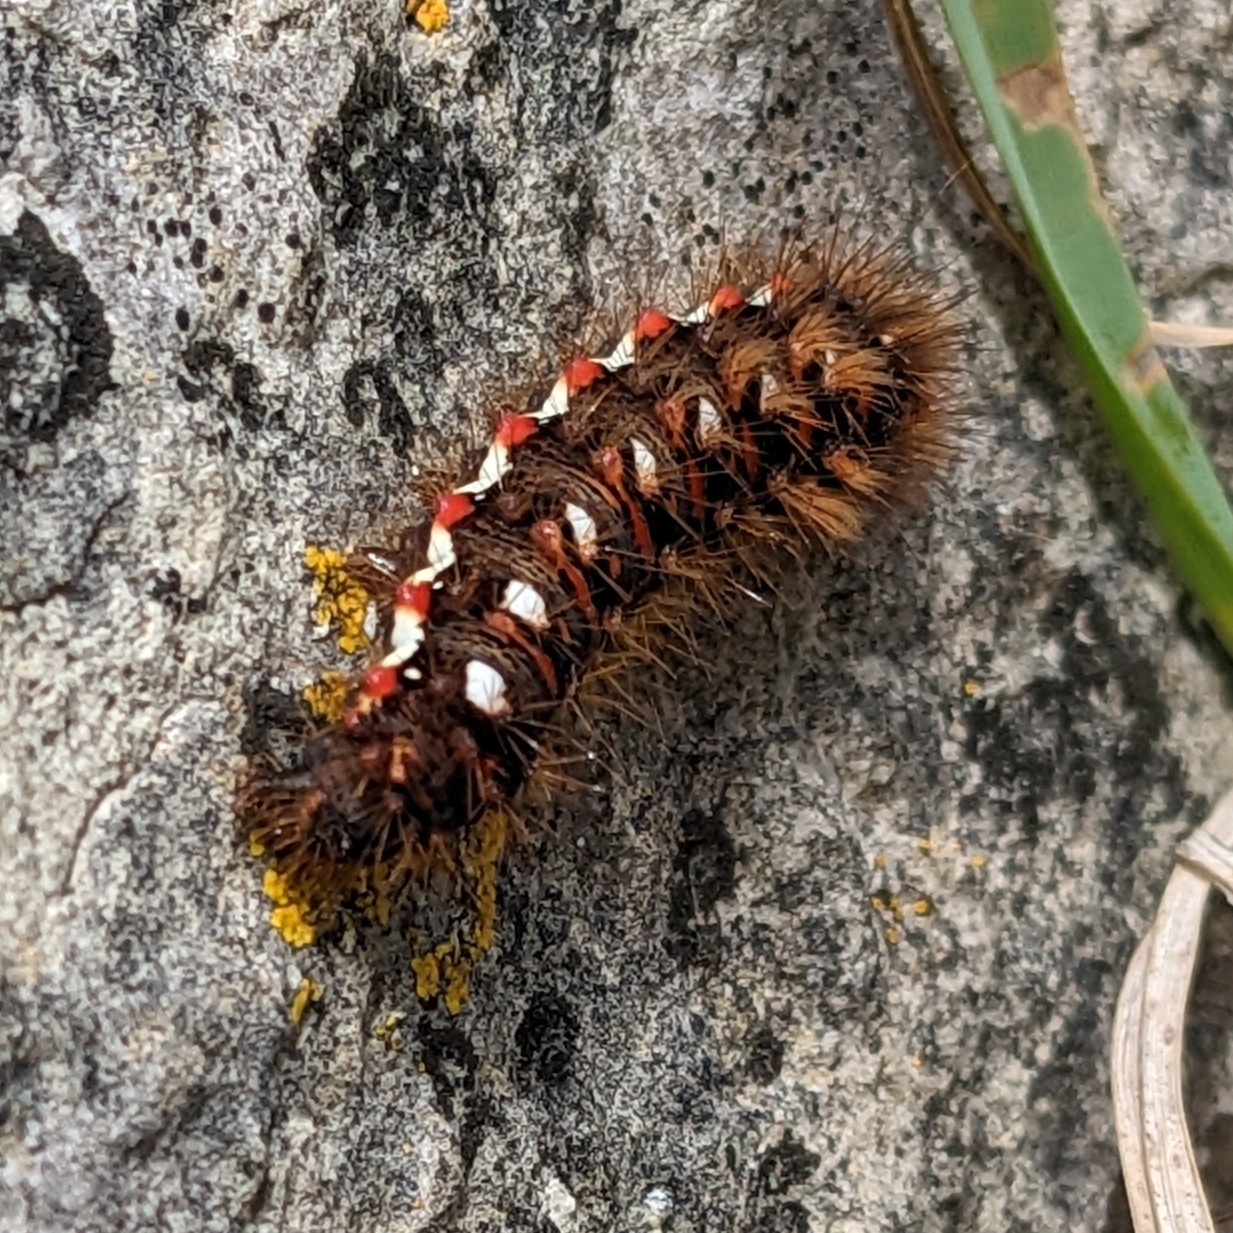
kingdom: Animalia
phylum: Arthropoda
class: Insecta
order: Lepidoptera
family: Noctuidae
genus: Acronicta
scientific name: Acronicta rumicis
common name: Knot grass
